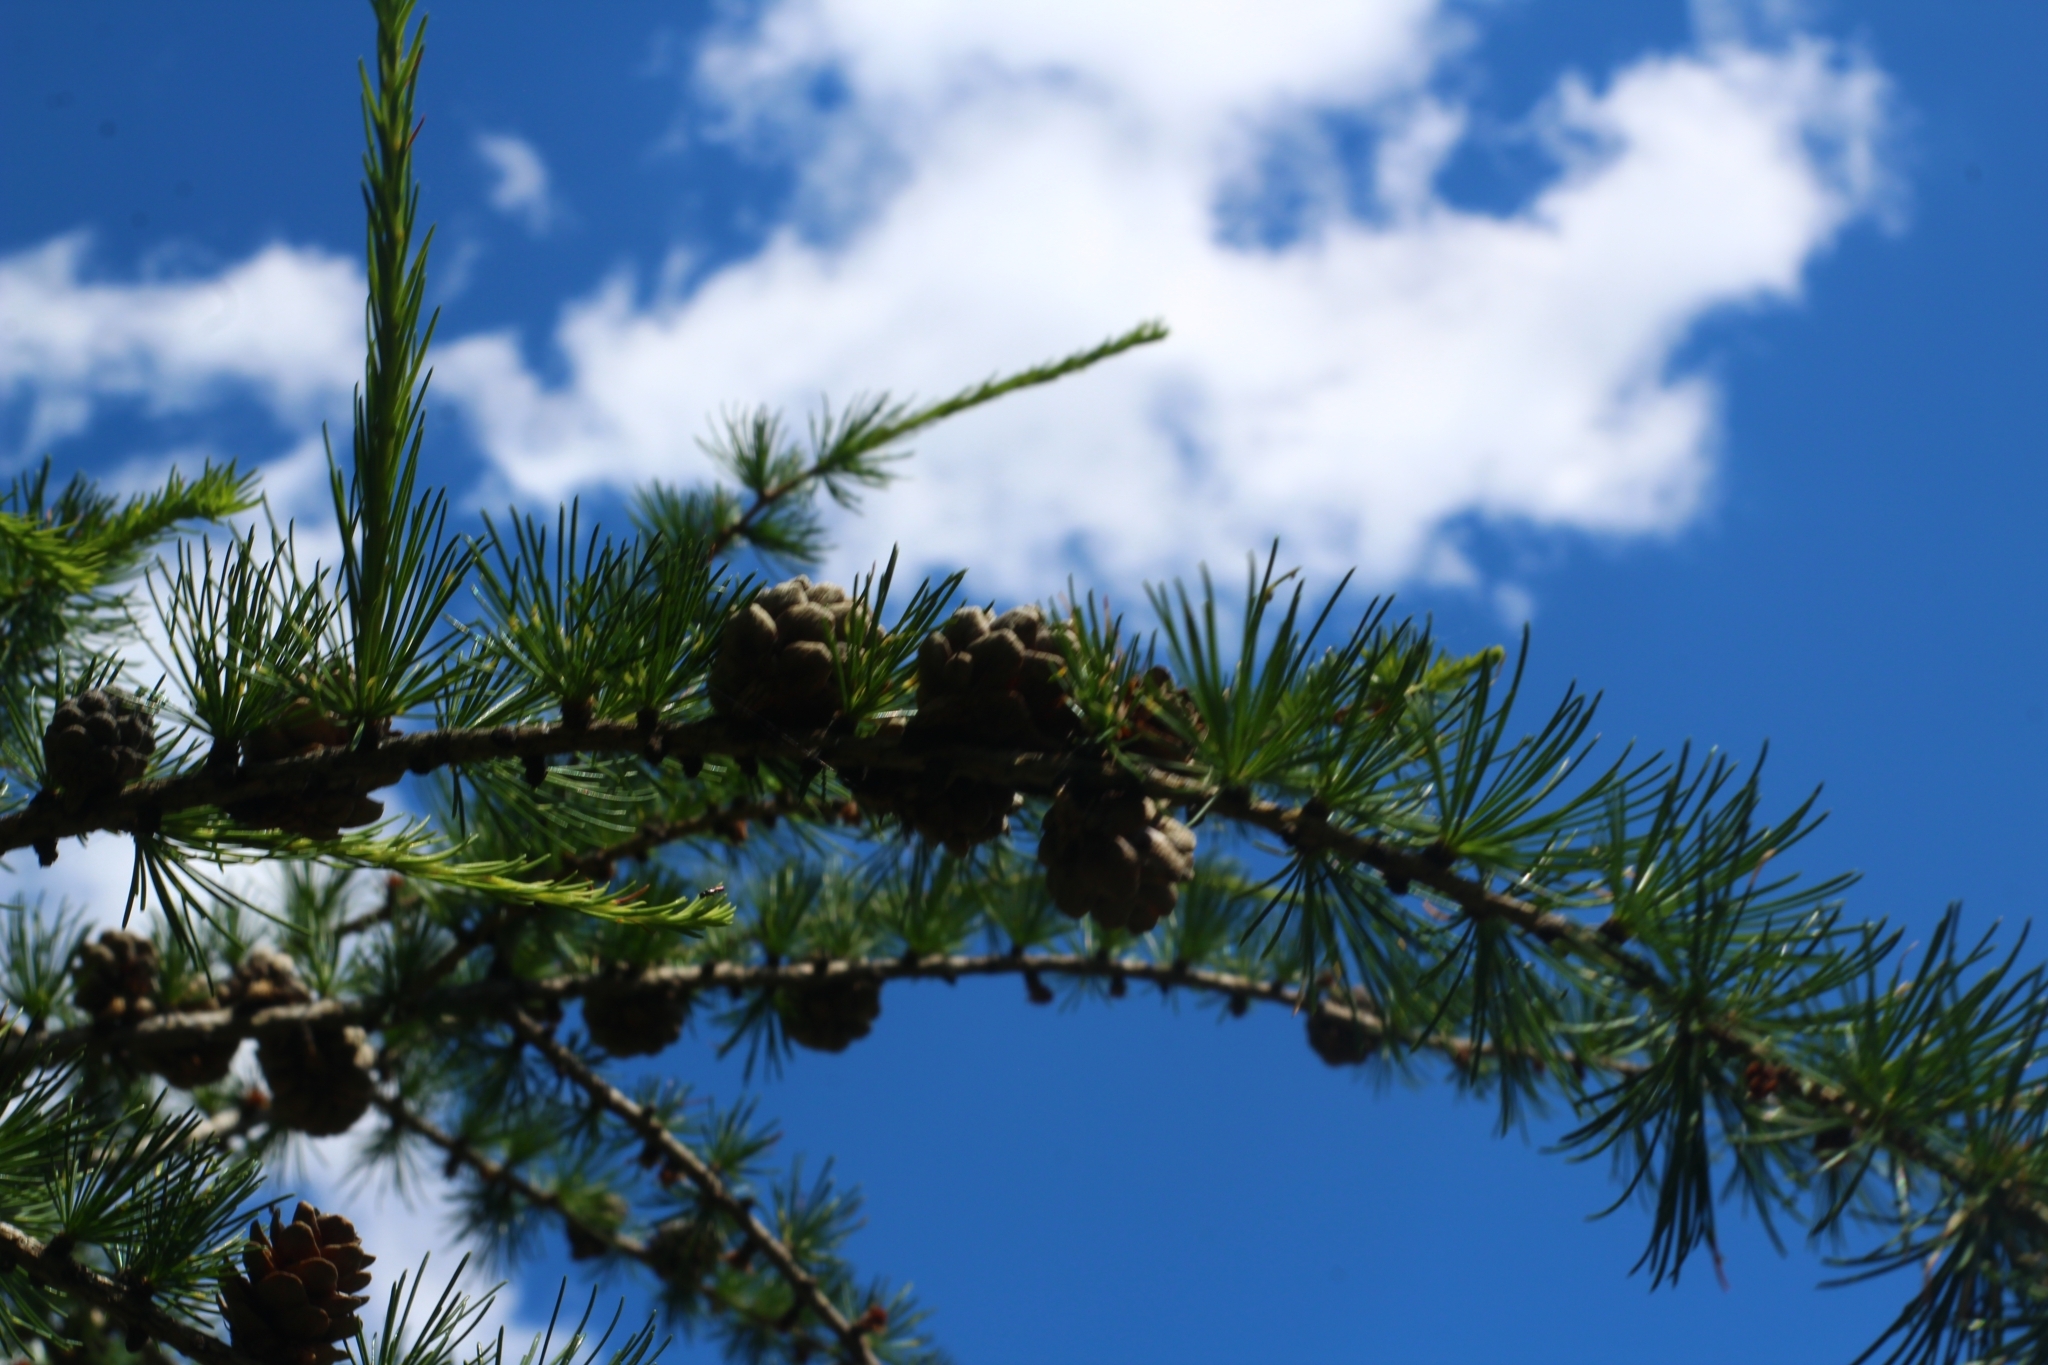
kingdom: Plantae
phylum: Tracheophyta
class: Pinopsida
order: Pinales
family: Pinaceae
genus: Larix
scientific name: Larix decidua
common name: European larch
